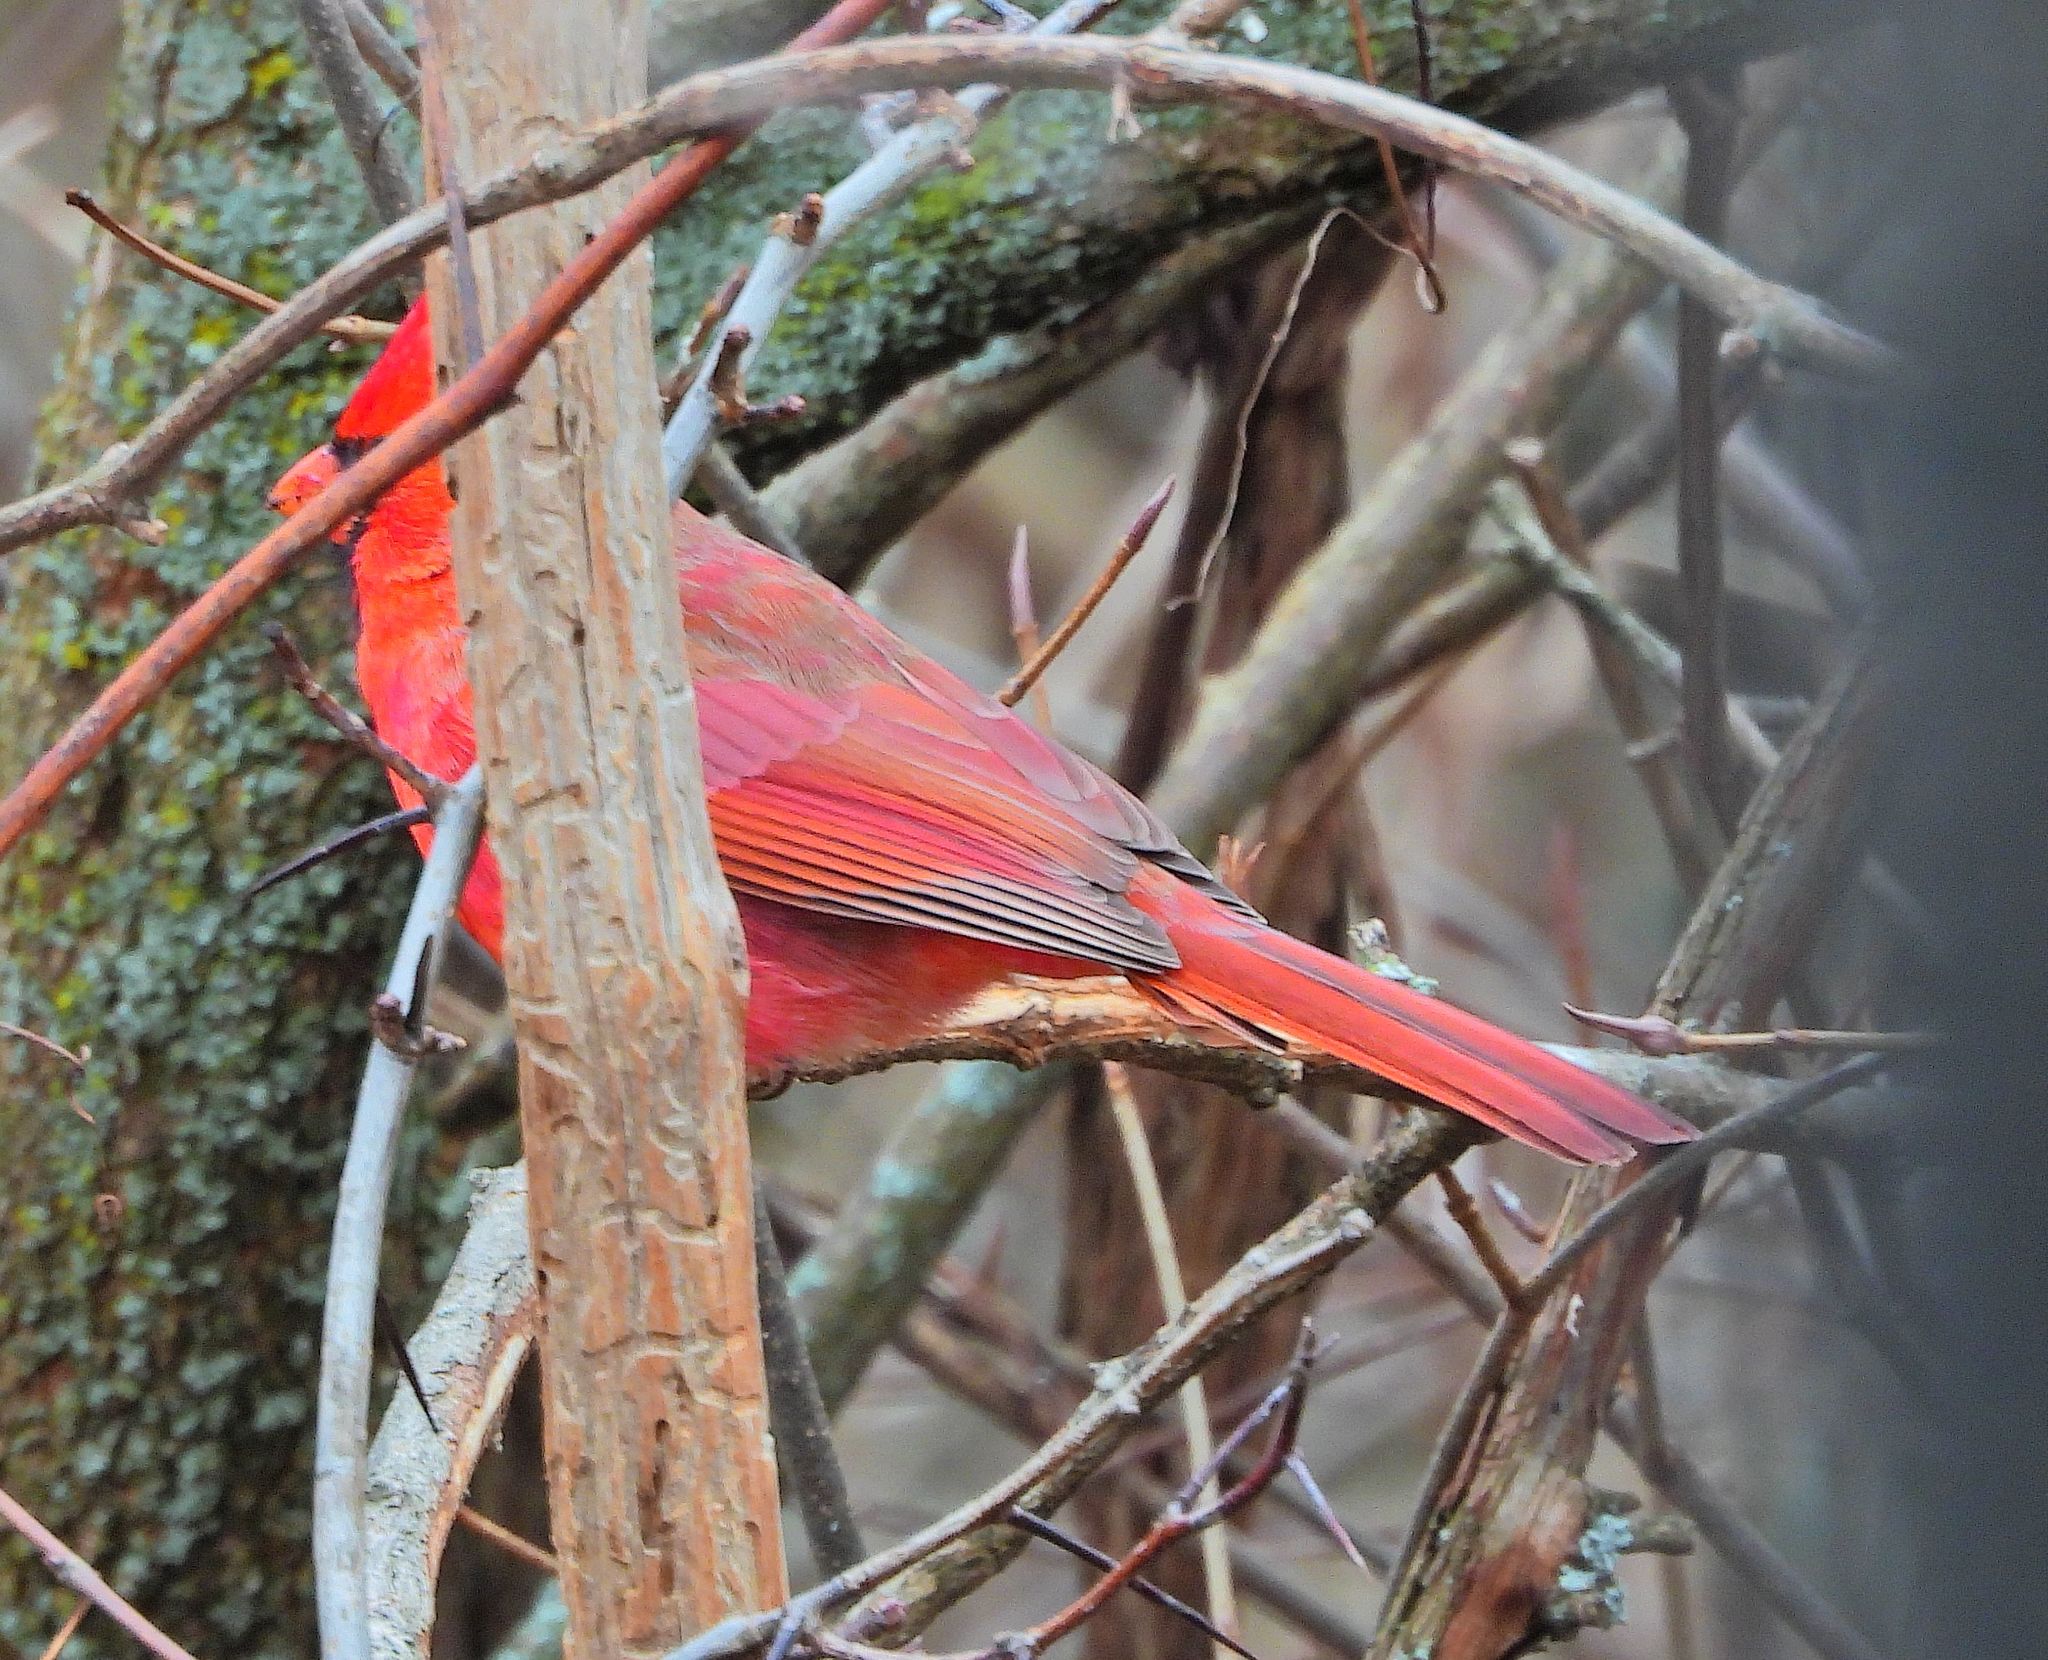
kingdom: Animalia
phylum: Chordata
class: Aves
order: Passeriformes
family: Cardinalidae
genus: Cardinalis
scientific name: Cardinalis cardinalis
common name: Northern cardinal
